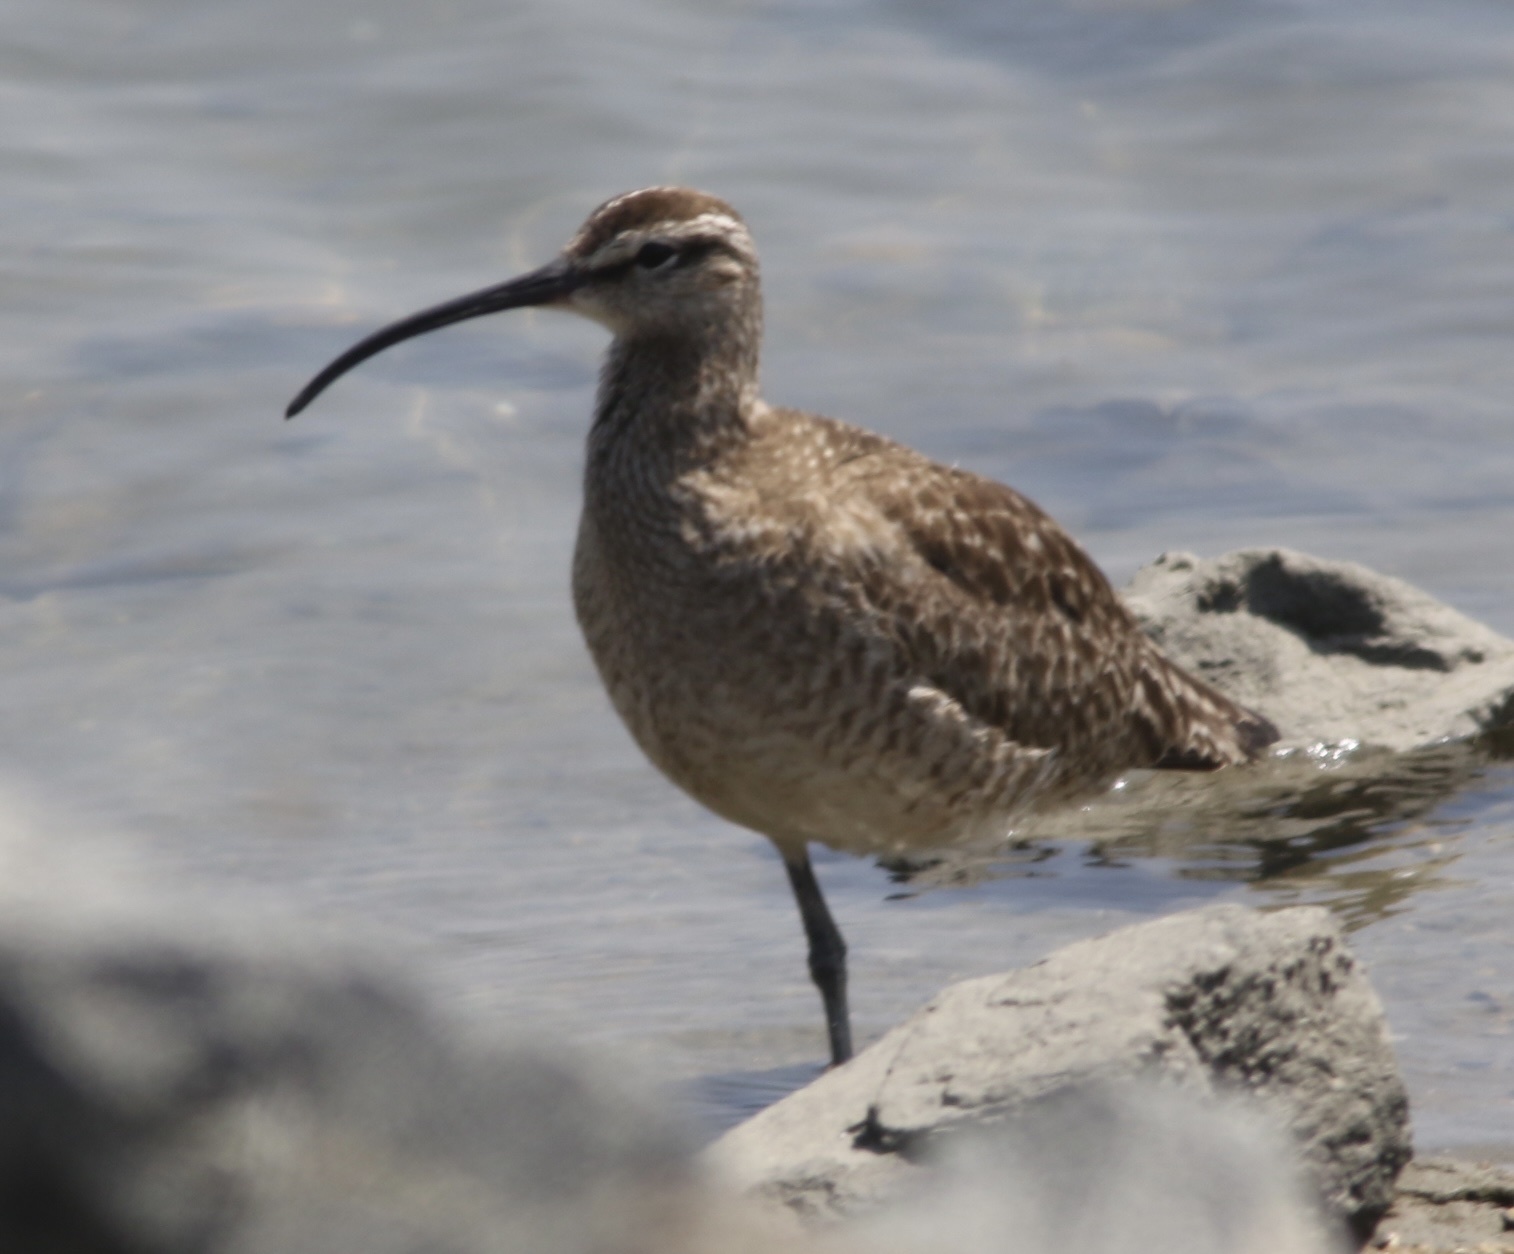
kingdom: Animalia
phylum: Chordata
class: Aves
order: Charadriiformes
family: Scolopacidae
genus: Numenius
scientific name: Numenius phaeopus
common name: Whimbrel
